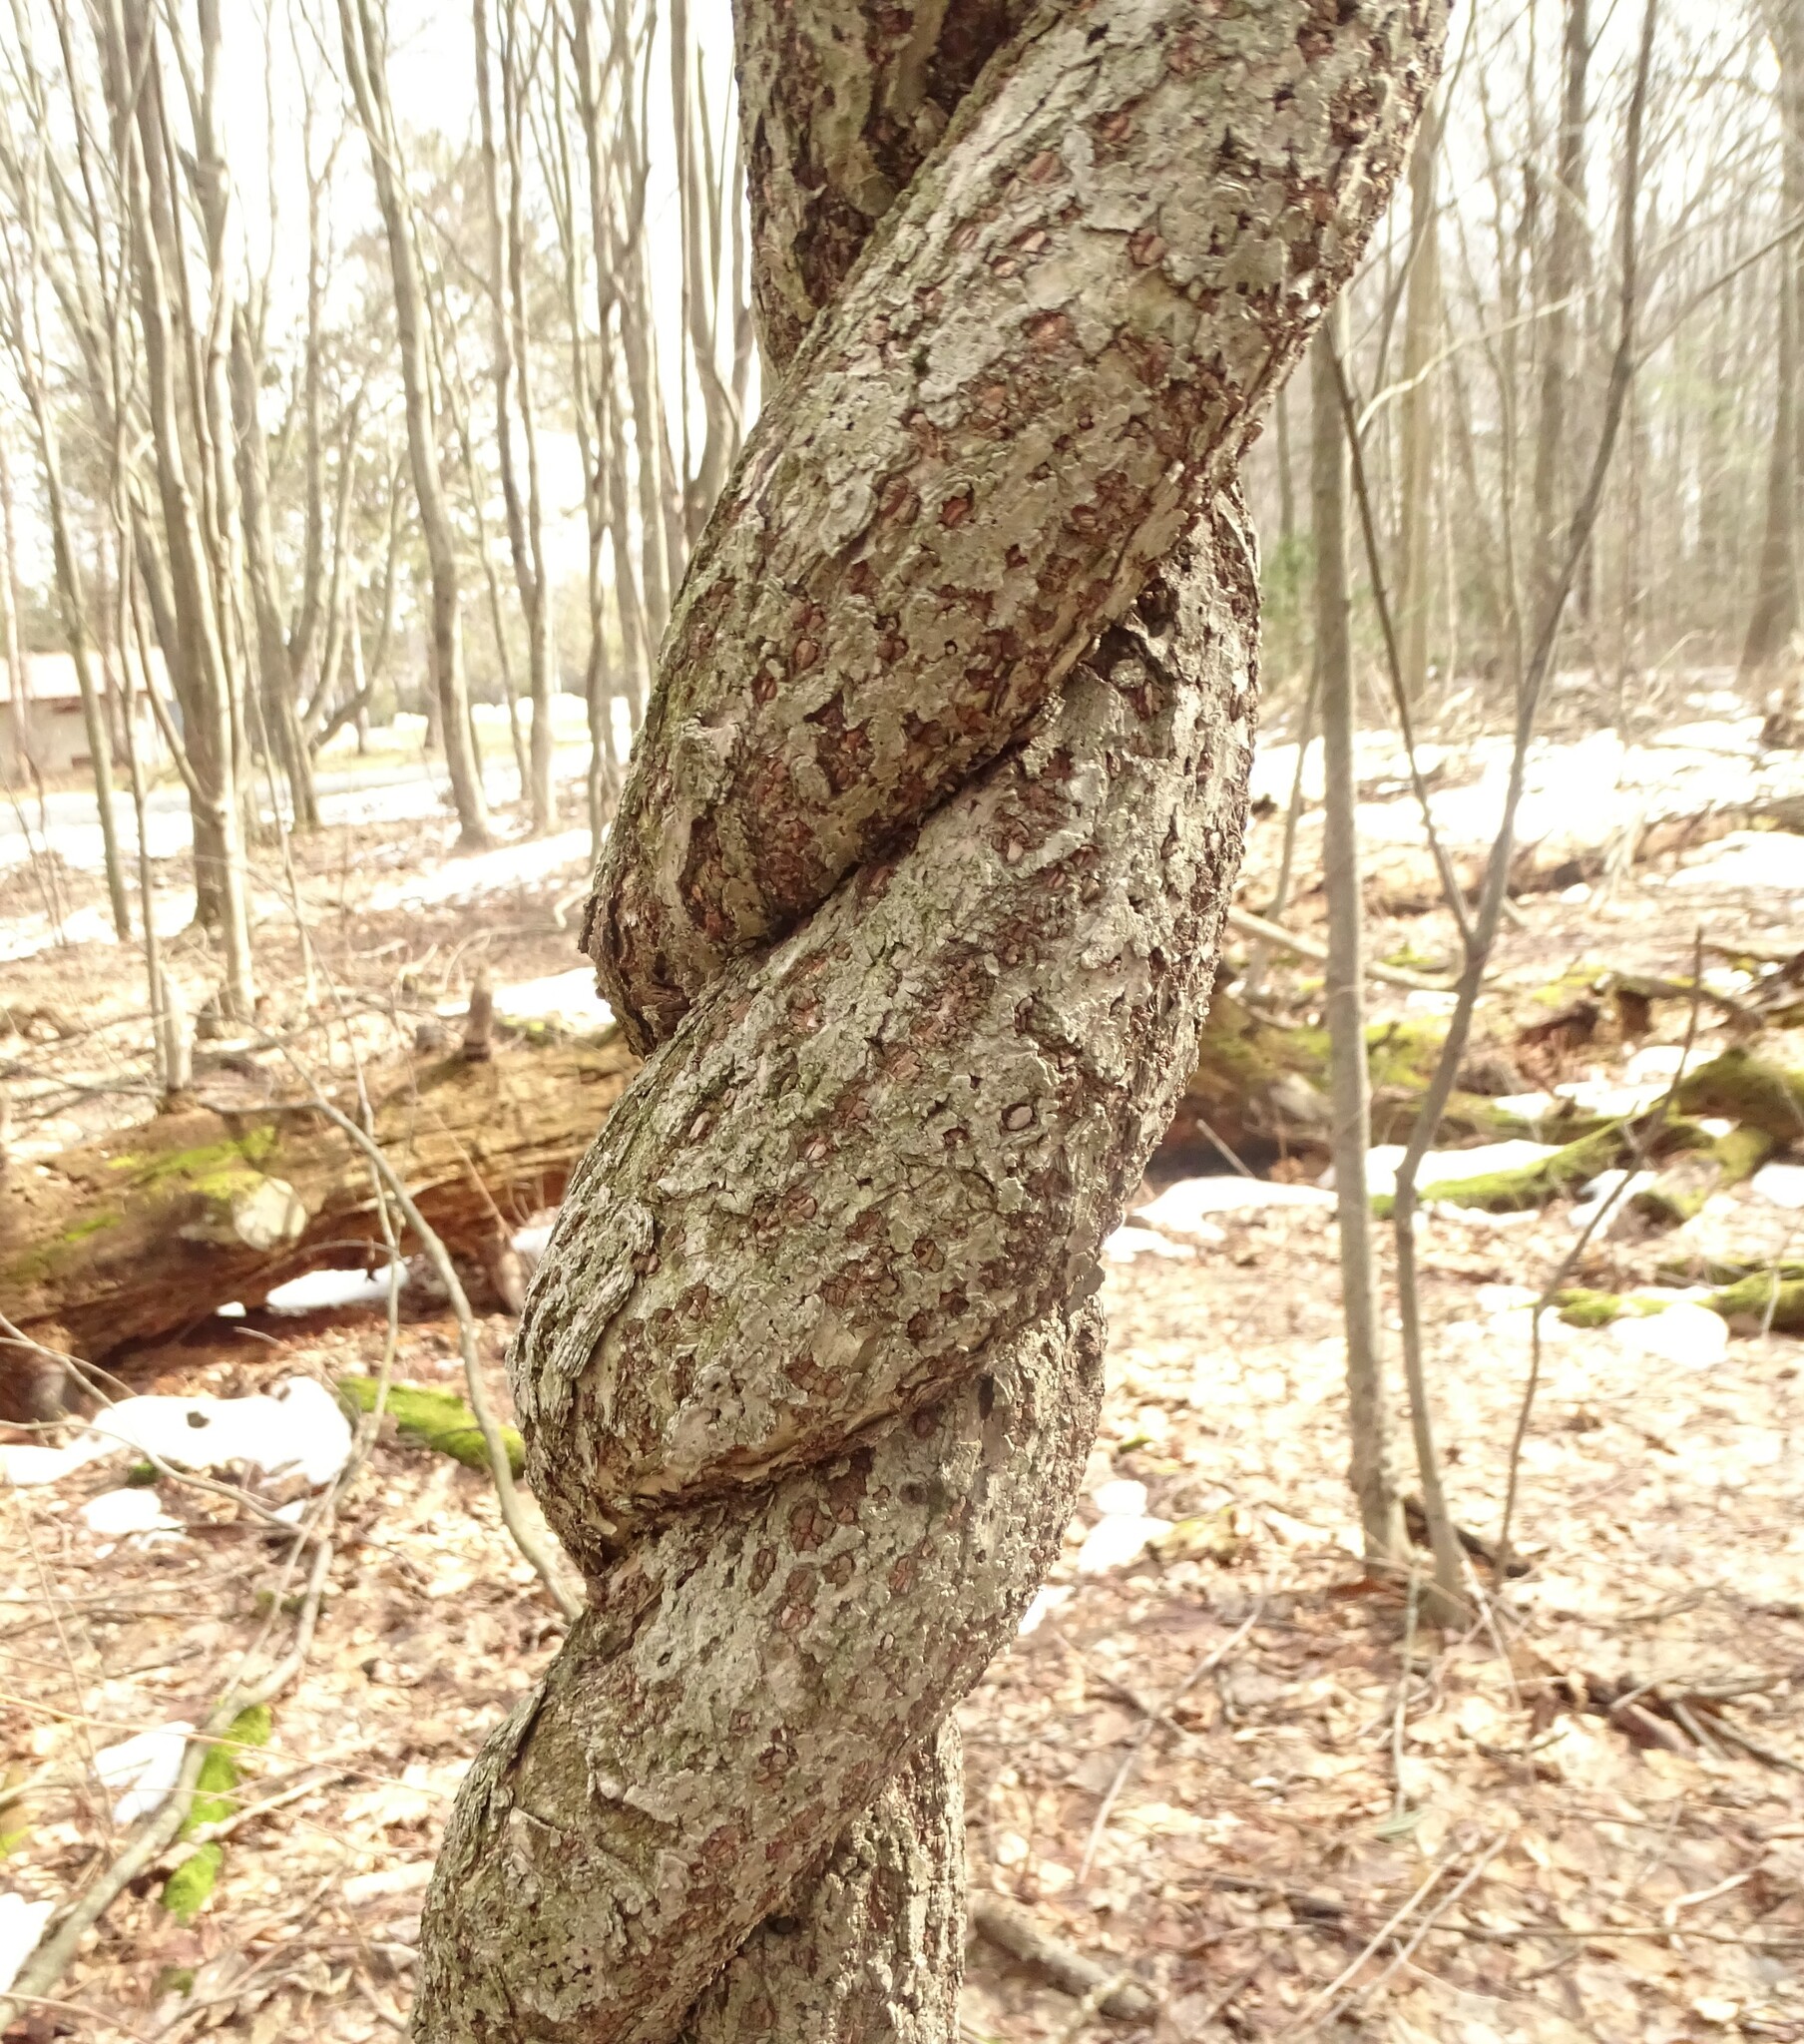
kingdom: Plantae
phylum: Tracheophyta
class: Magnoliopsida
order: Celastrales
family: Celastraceae
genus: Celastrus
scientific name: Celastrus orbiculatus
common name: Oriental bittersweet
